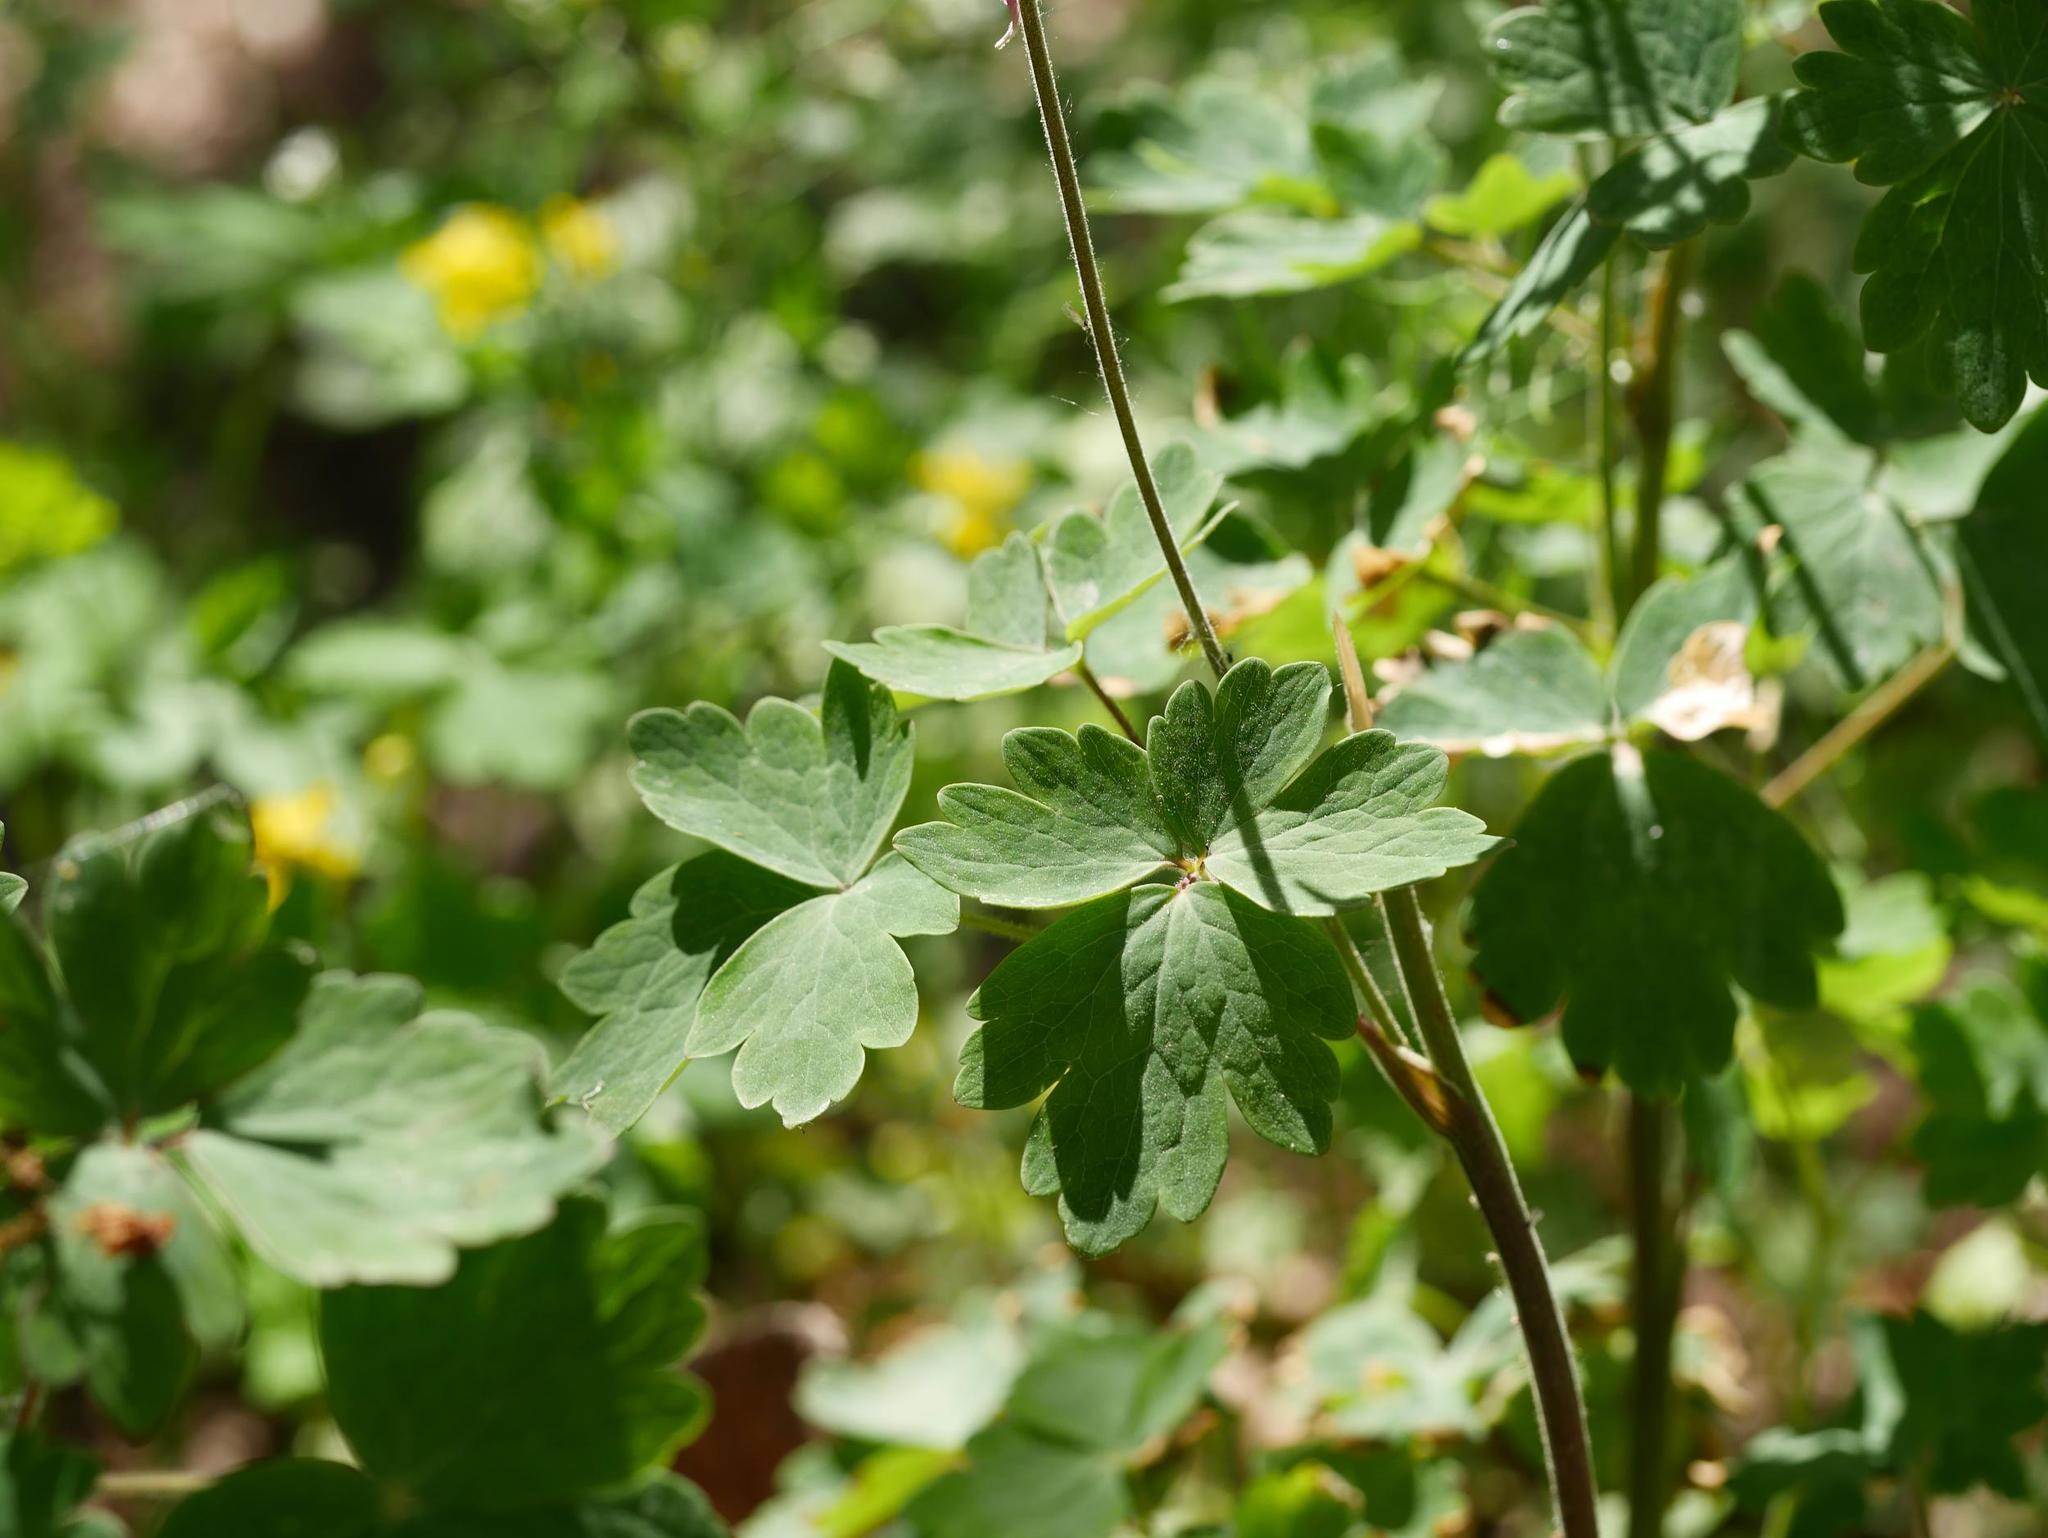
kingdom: Plantae
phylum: Tracheophyta
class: Magnoliopsida
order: Ranunculales
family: Ranunculaceae
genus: Aquilegia
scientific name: Aquilegia vulgaris
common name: Columbine
